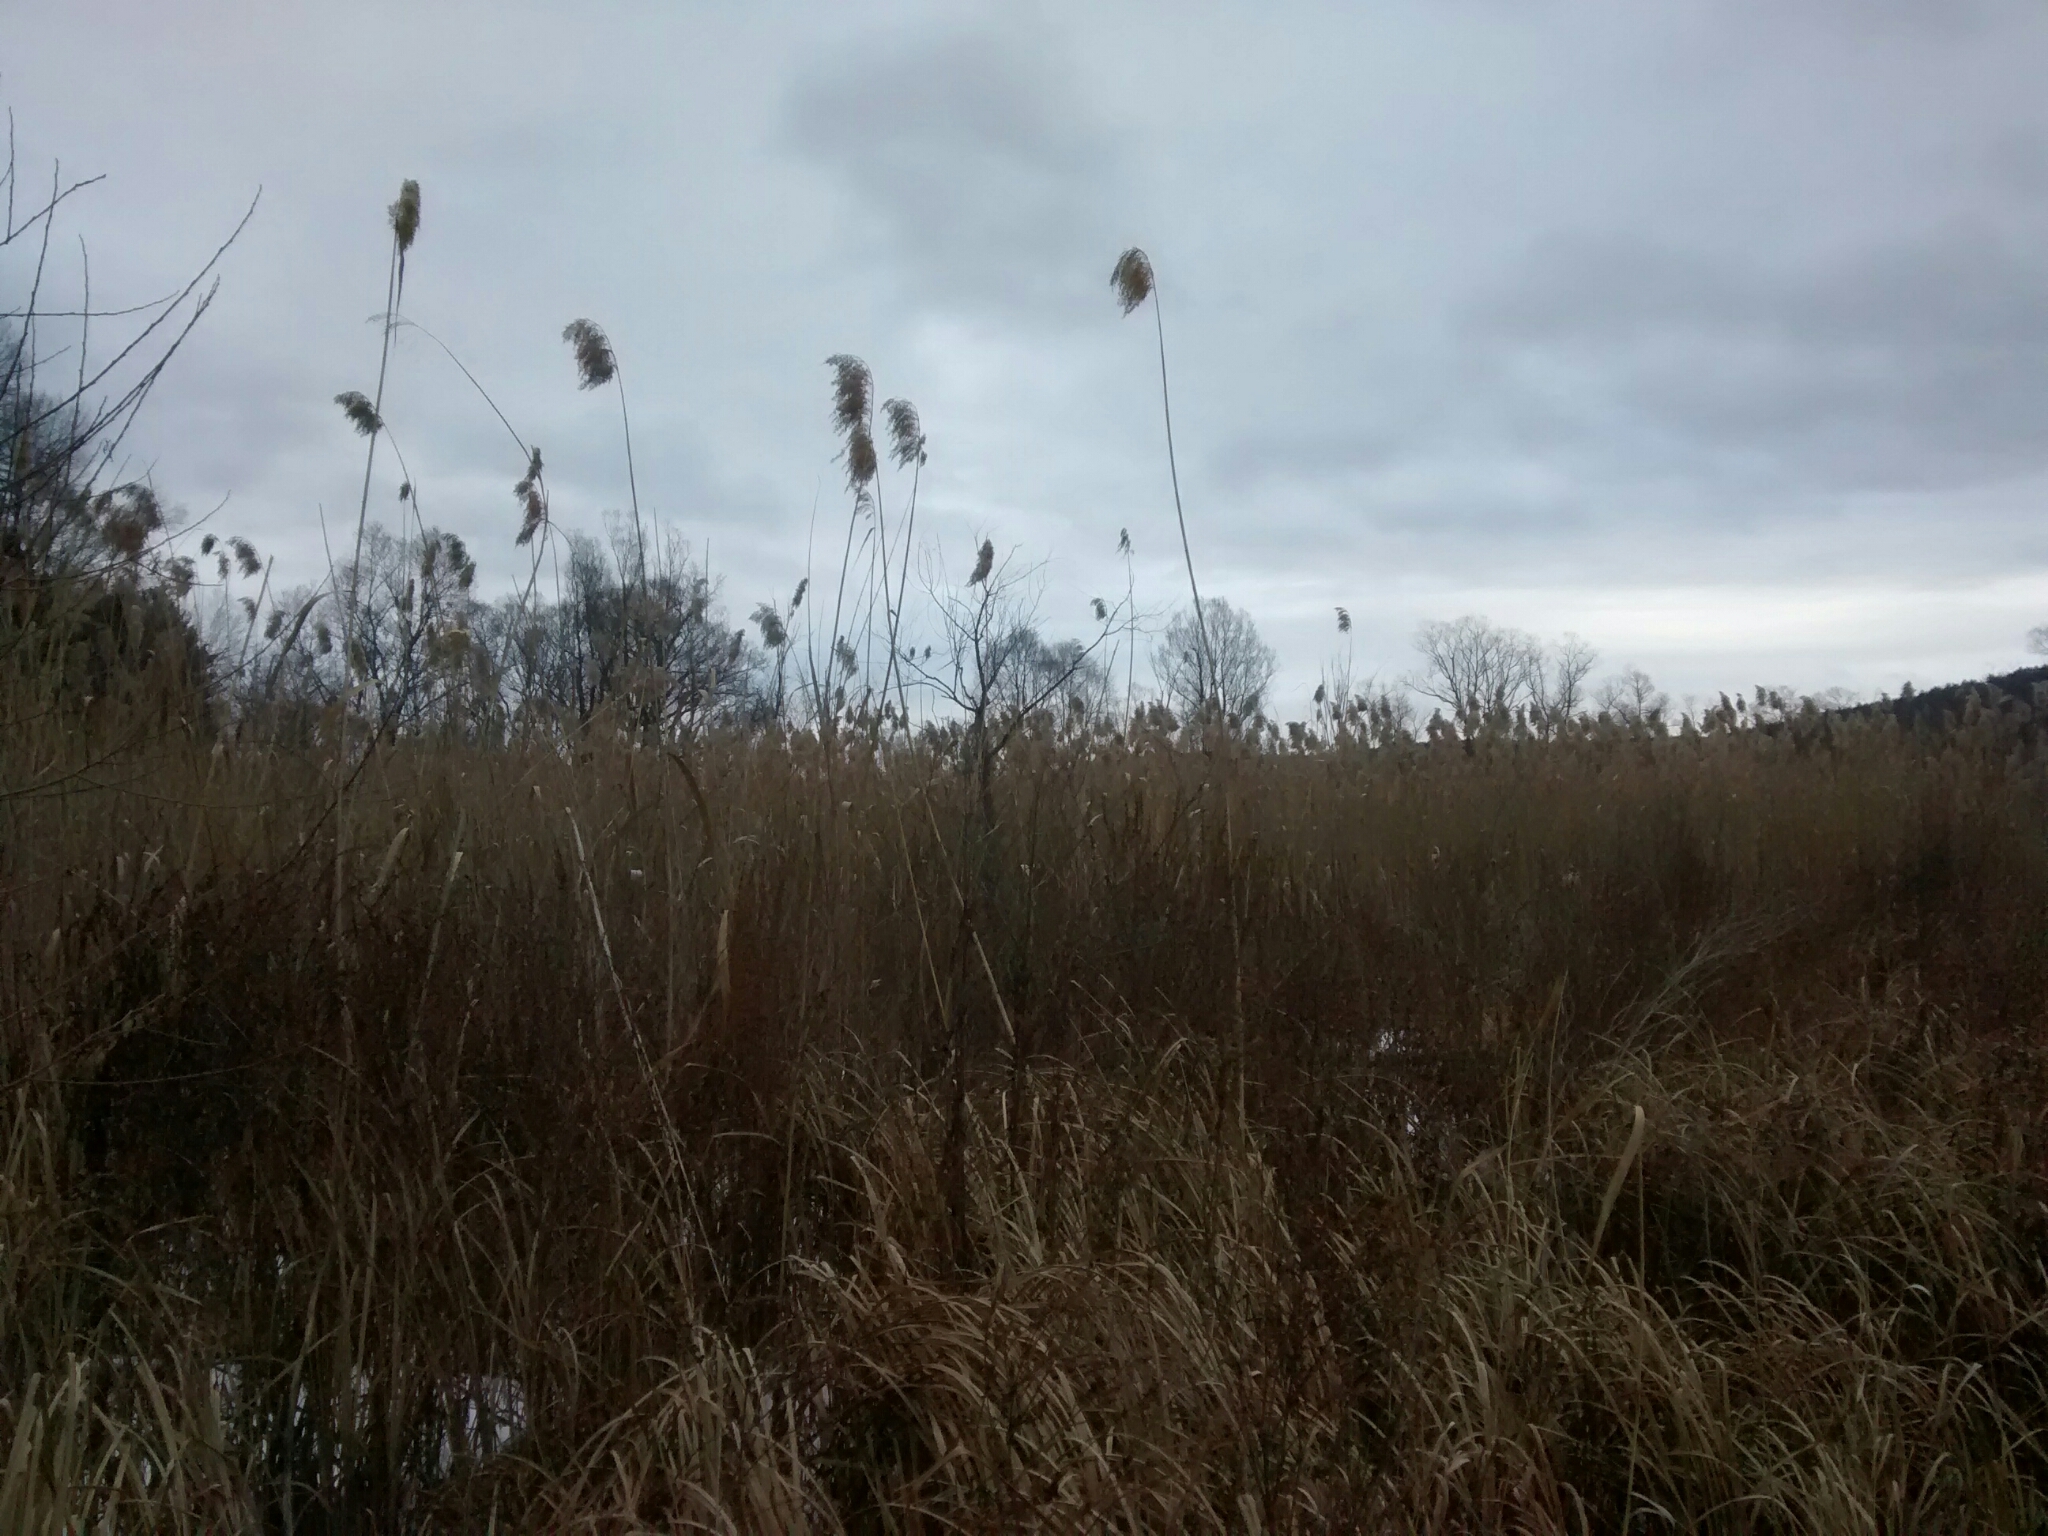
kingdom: Plantae
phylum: Tracheophyta
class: Liliopsida
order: Poales
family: Poaceae
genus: Phragmites
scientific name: Phragmites australis
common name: Common reed
